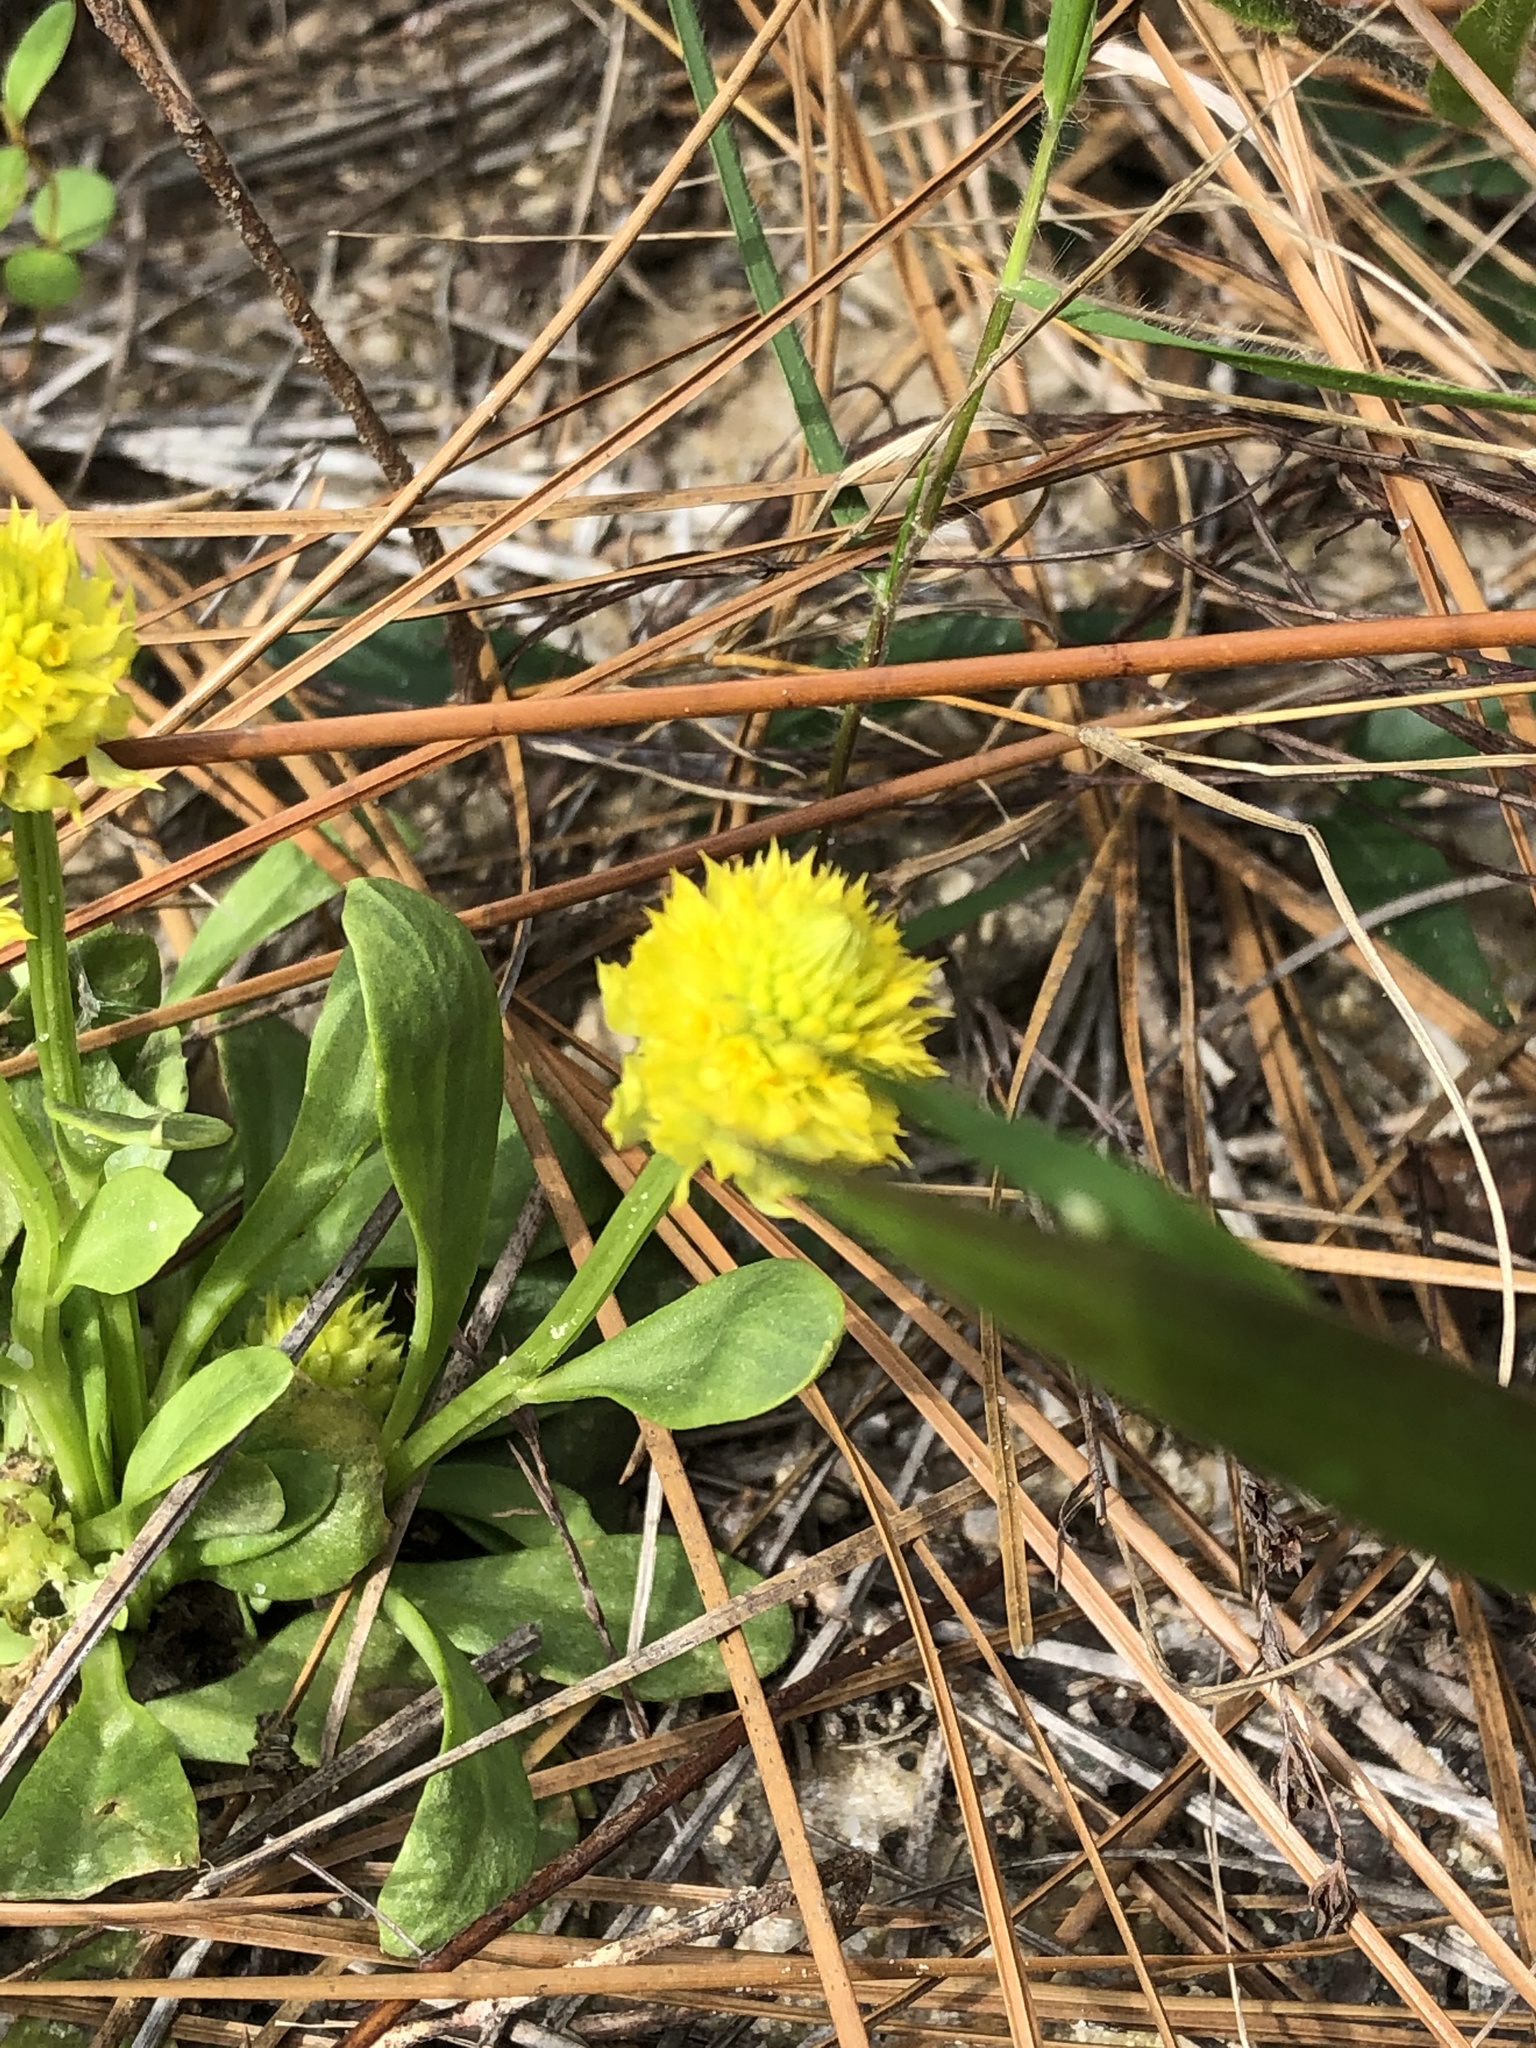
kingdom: Plantae
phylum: Tracheophyta
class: Magnoliopsida
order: Fabales
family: Polygalaceae
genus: Polygala
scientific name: Polygala nana
